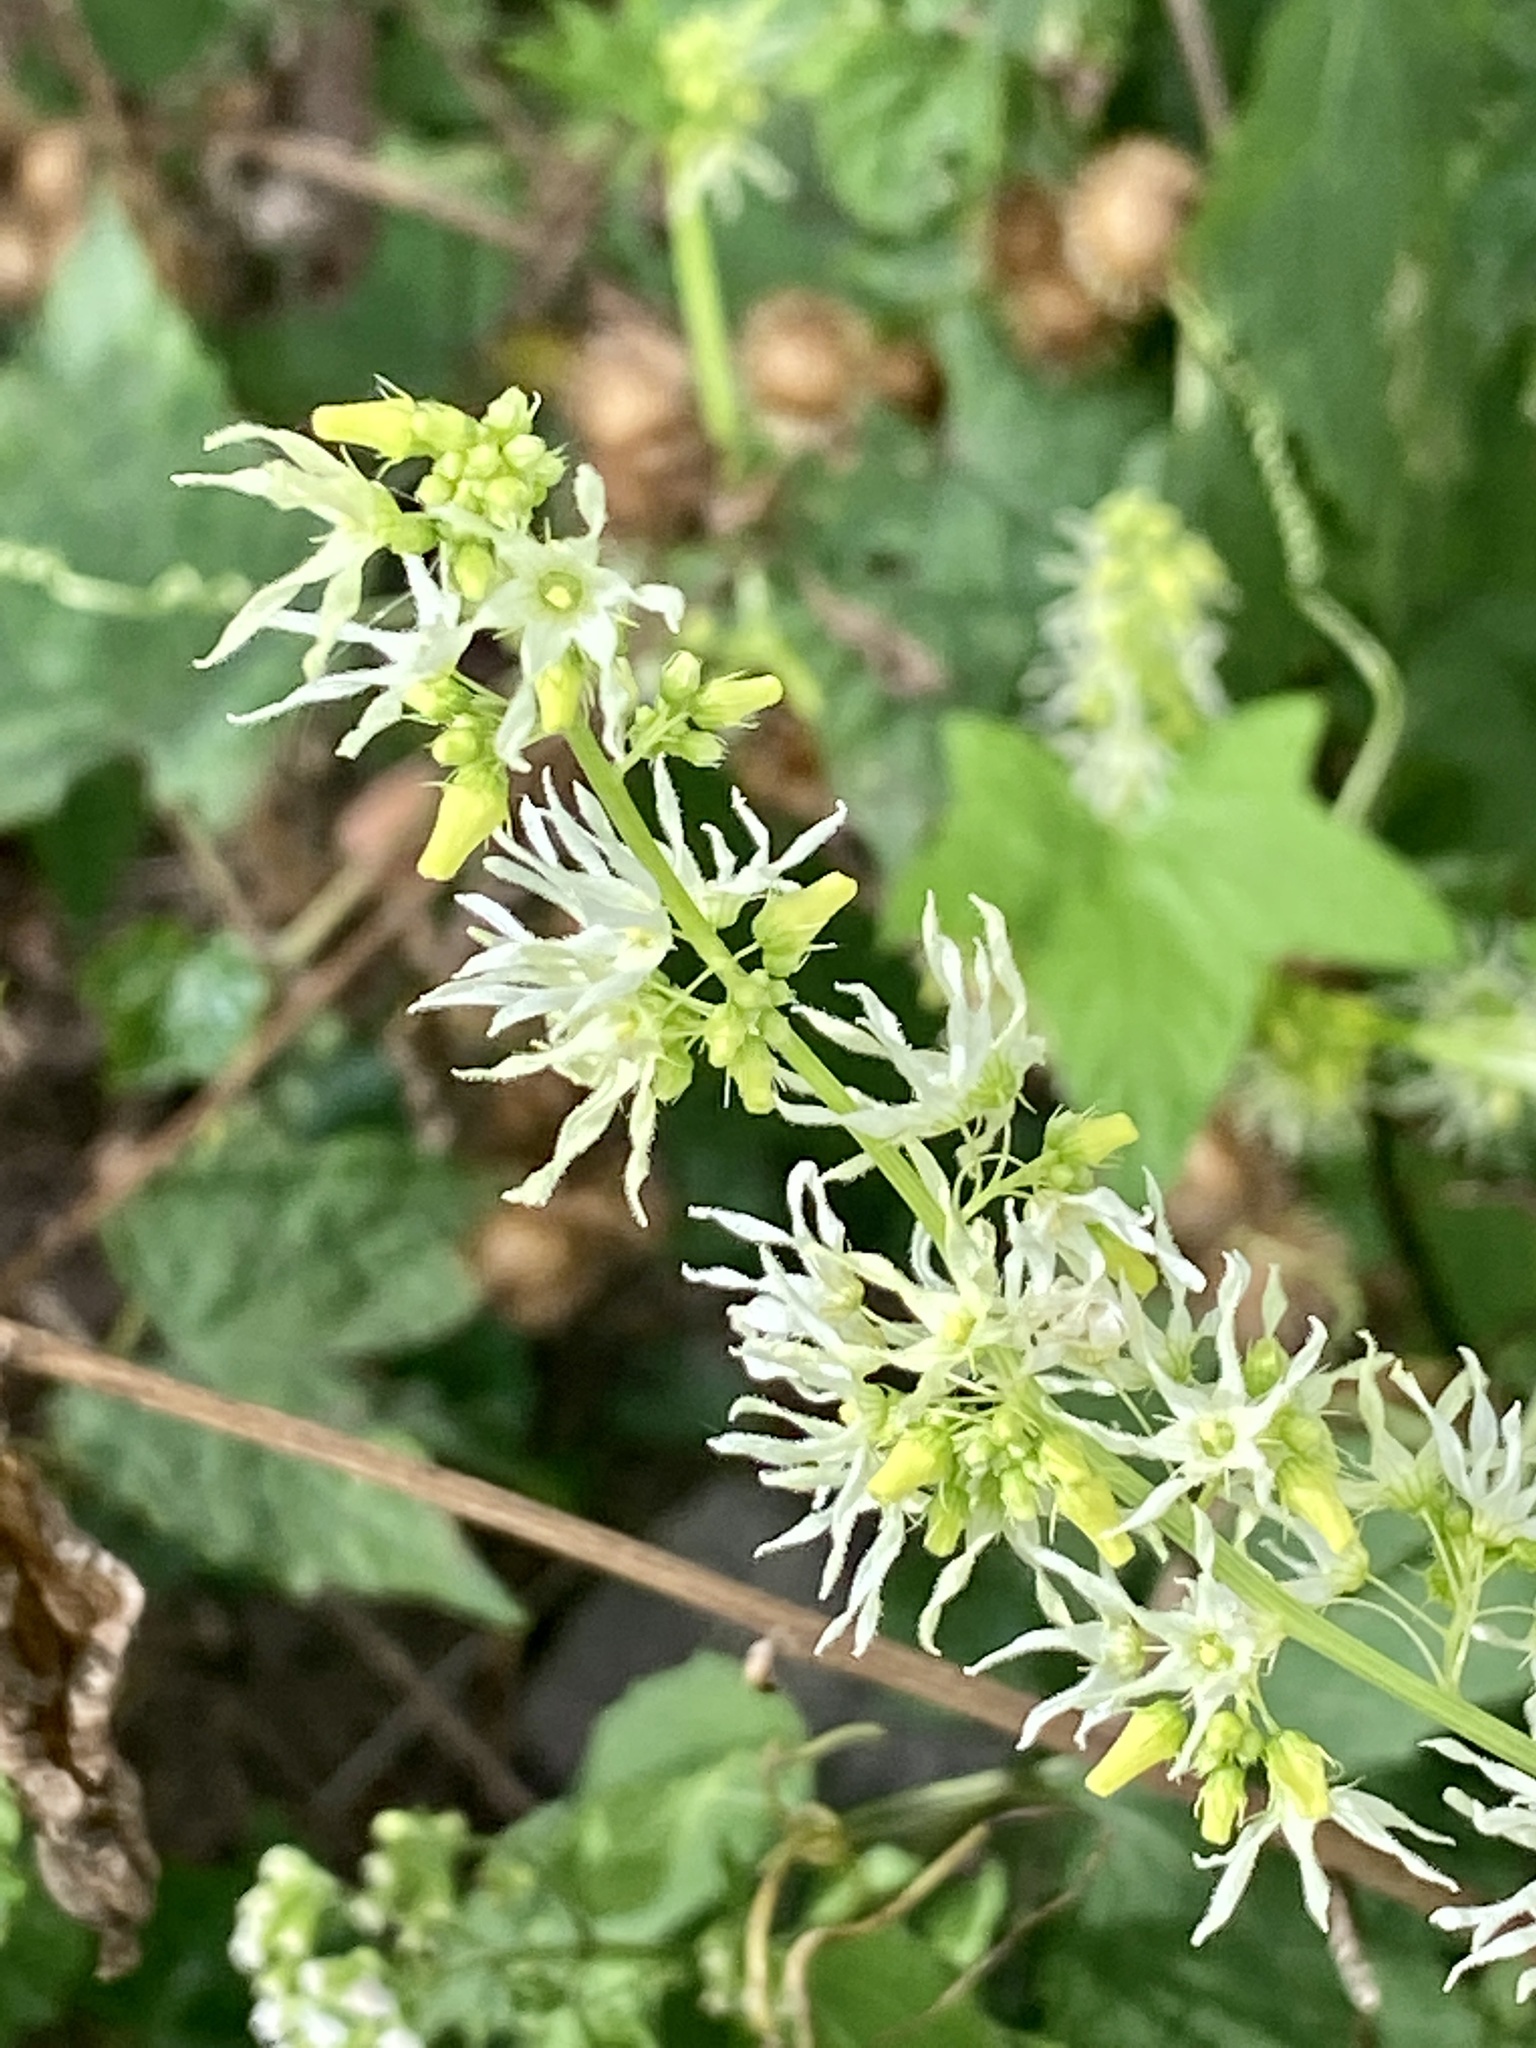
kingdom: Plantae
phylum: Tracheophyta
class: Magnoliopsida
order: Cucurbitales
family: Cucurbitaceae
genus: Echinocystis
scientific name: Echinocystis lobata
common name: Wild cucumber
